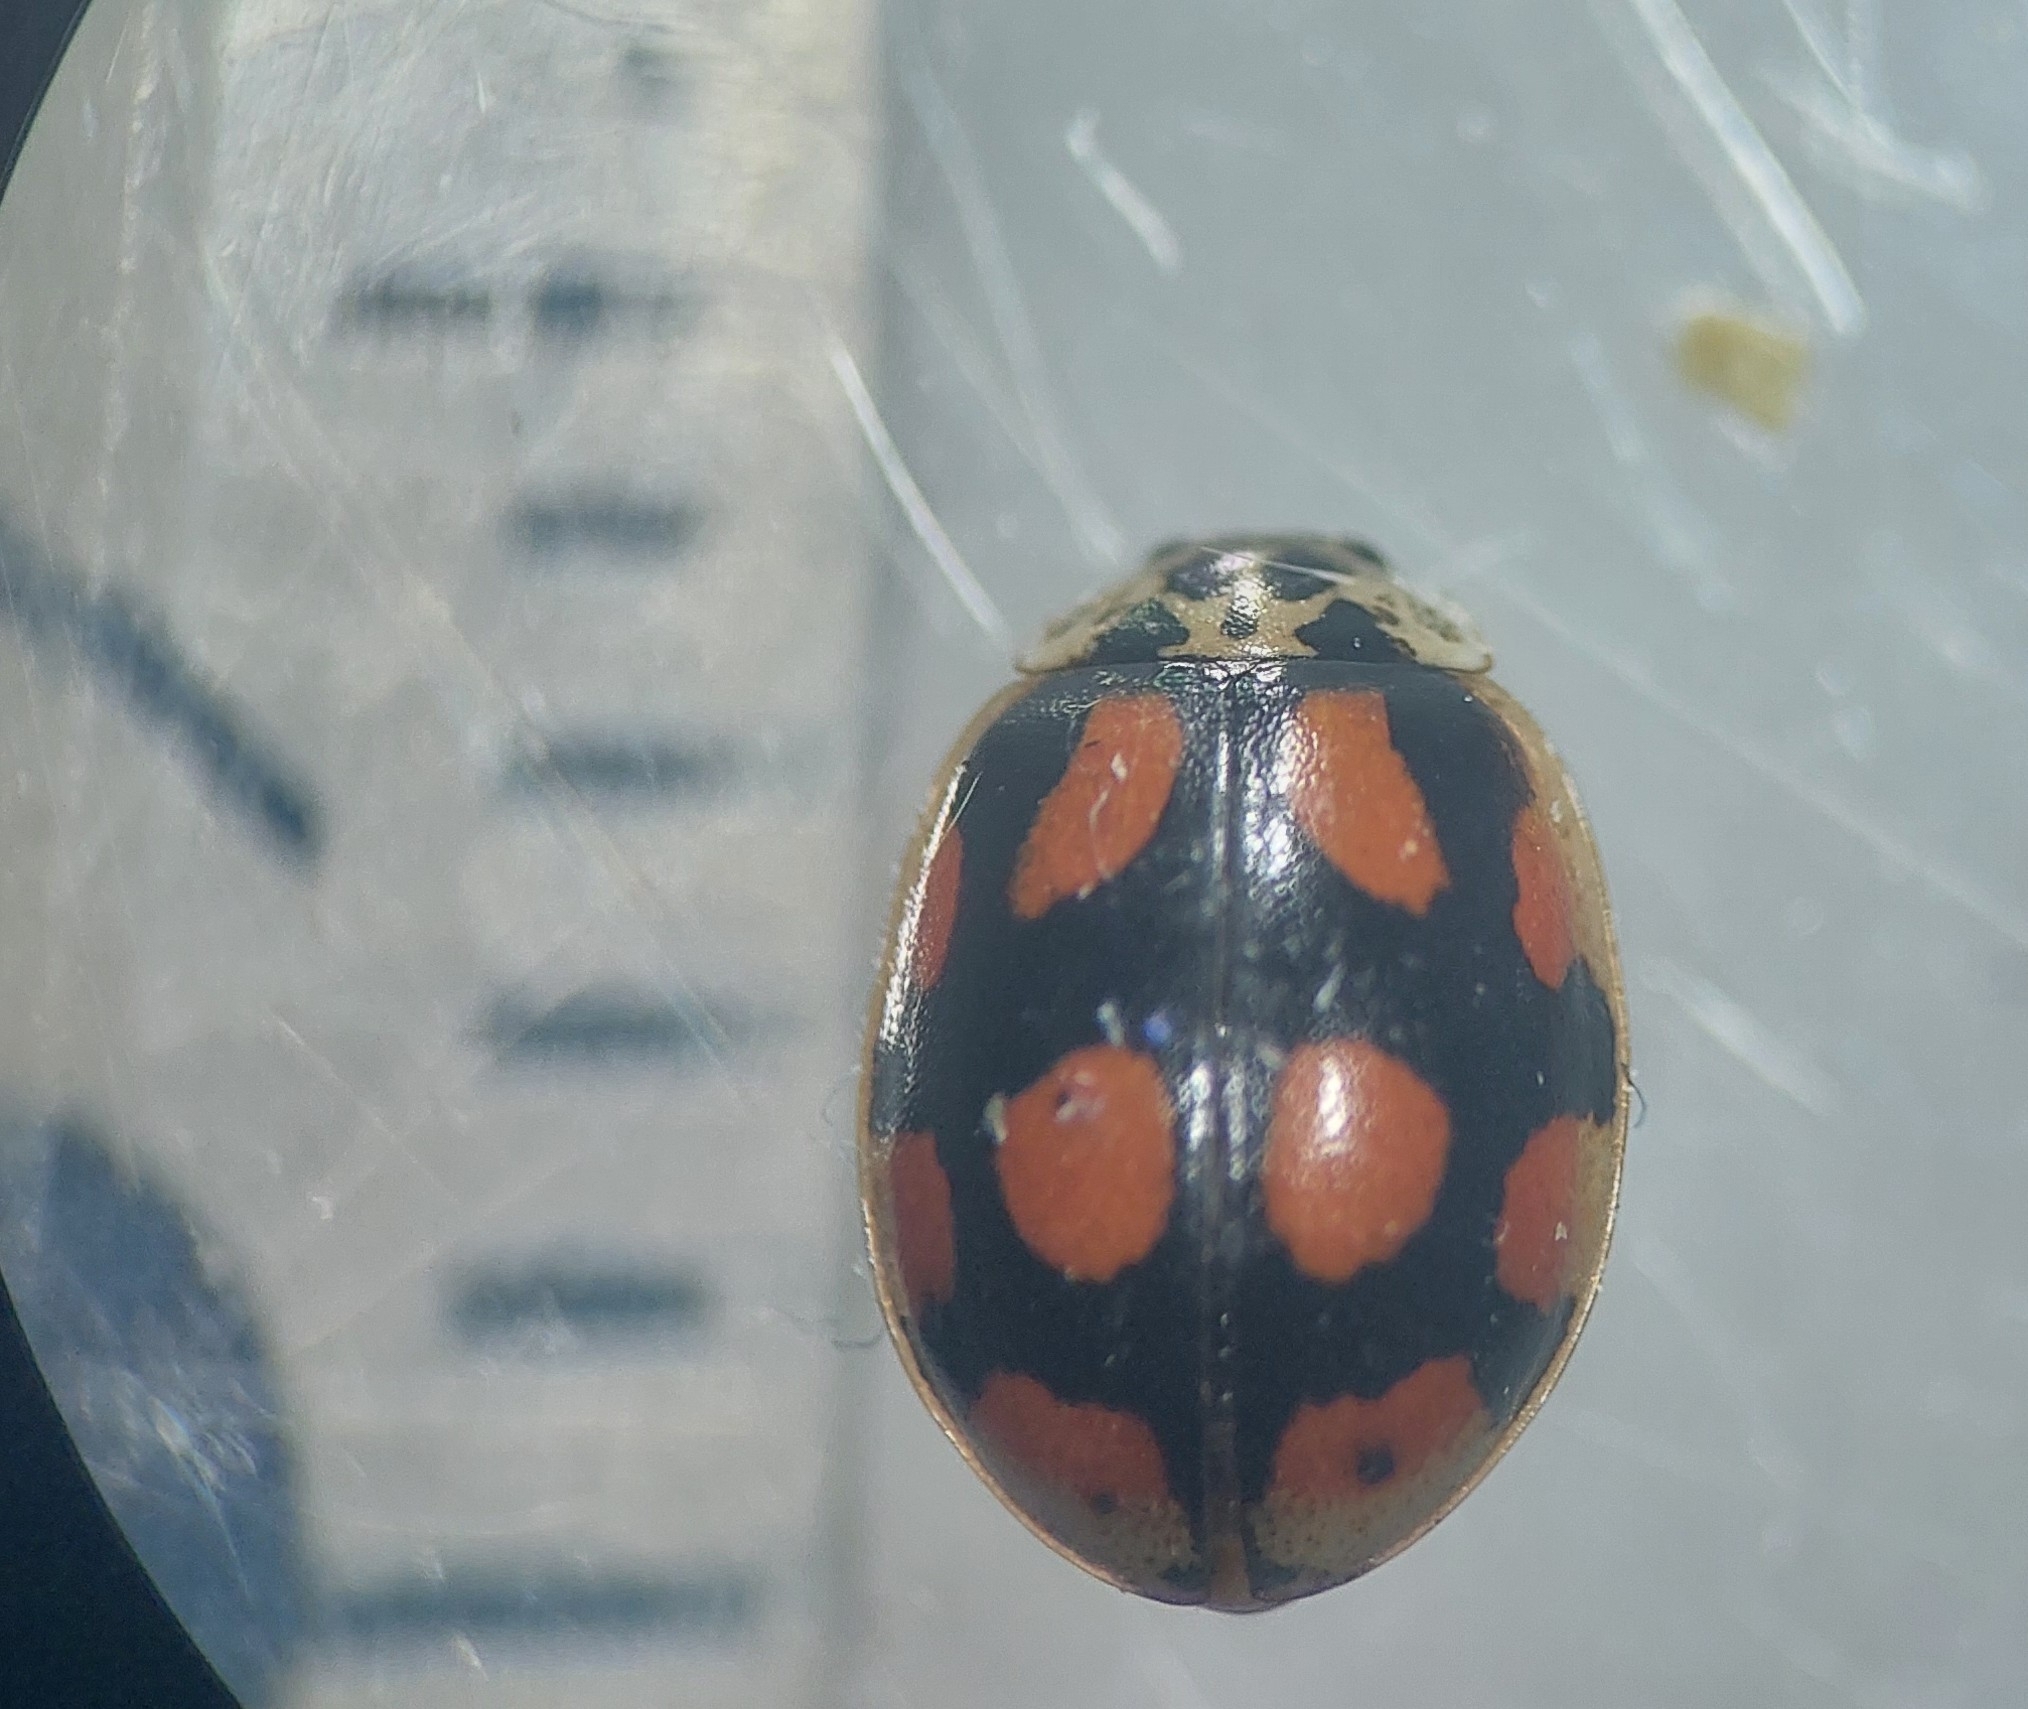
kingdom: Animalia
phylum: Arthropoda
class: Insecta
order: Coleoptera
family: Coccinellidae
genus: Adalia
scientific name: Adalia decempunctata
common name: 10-spot ladybird
